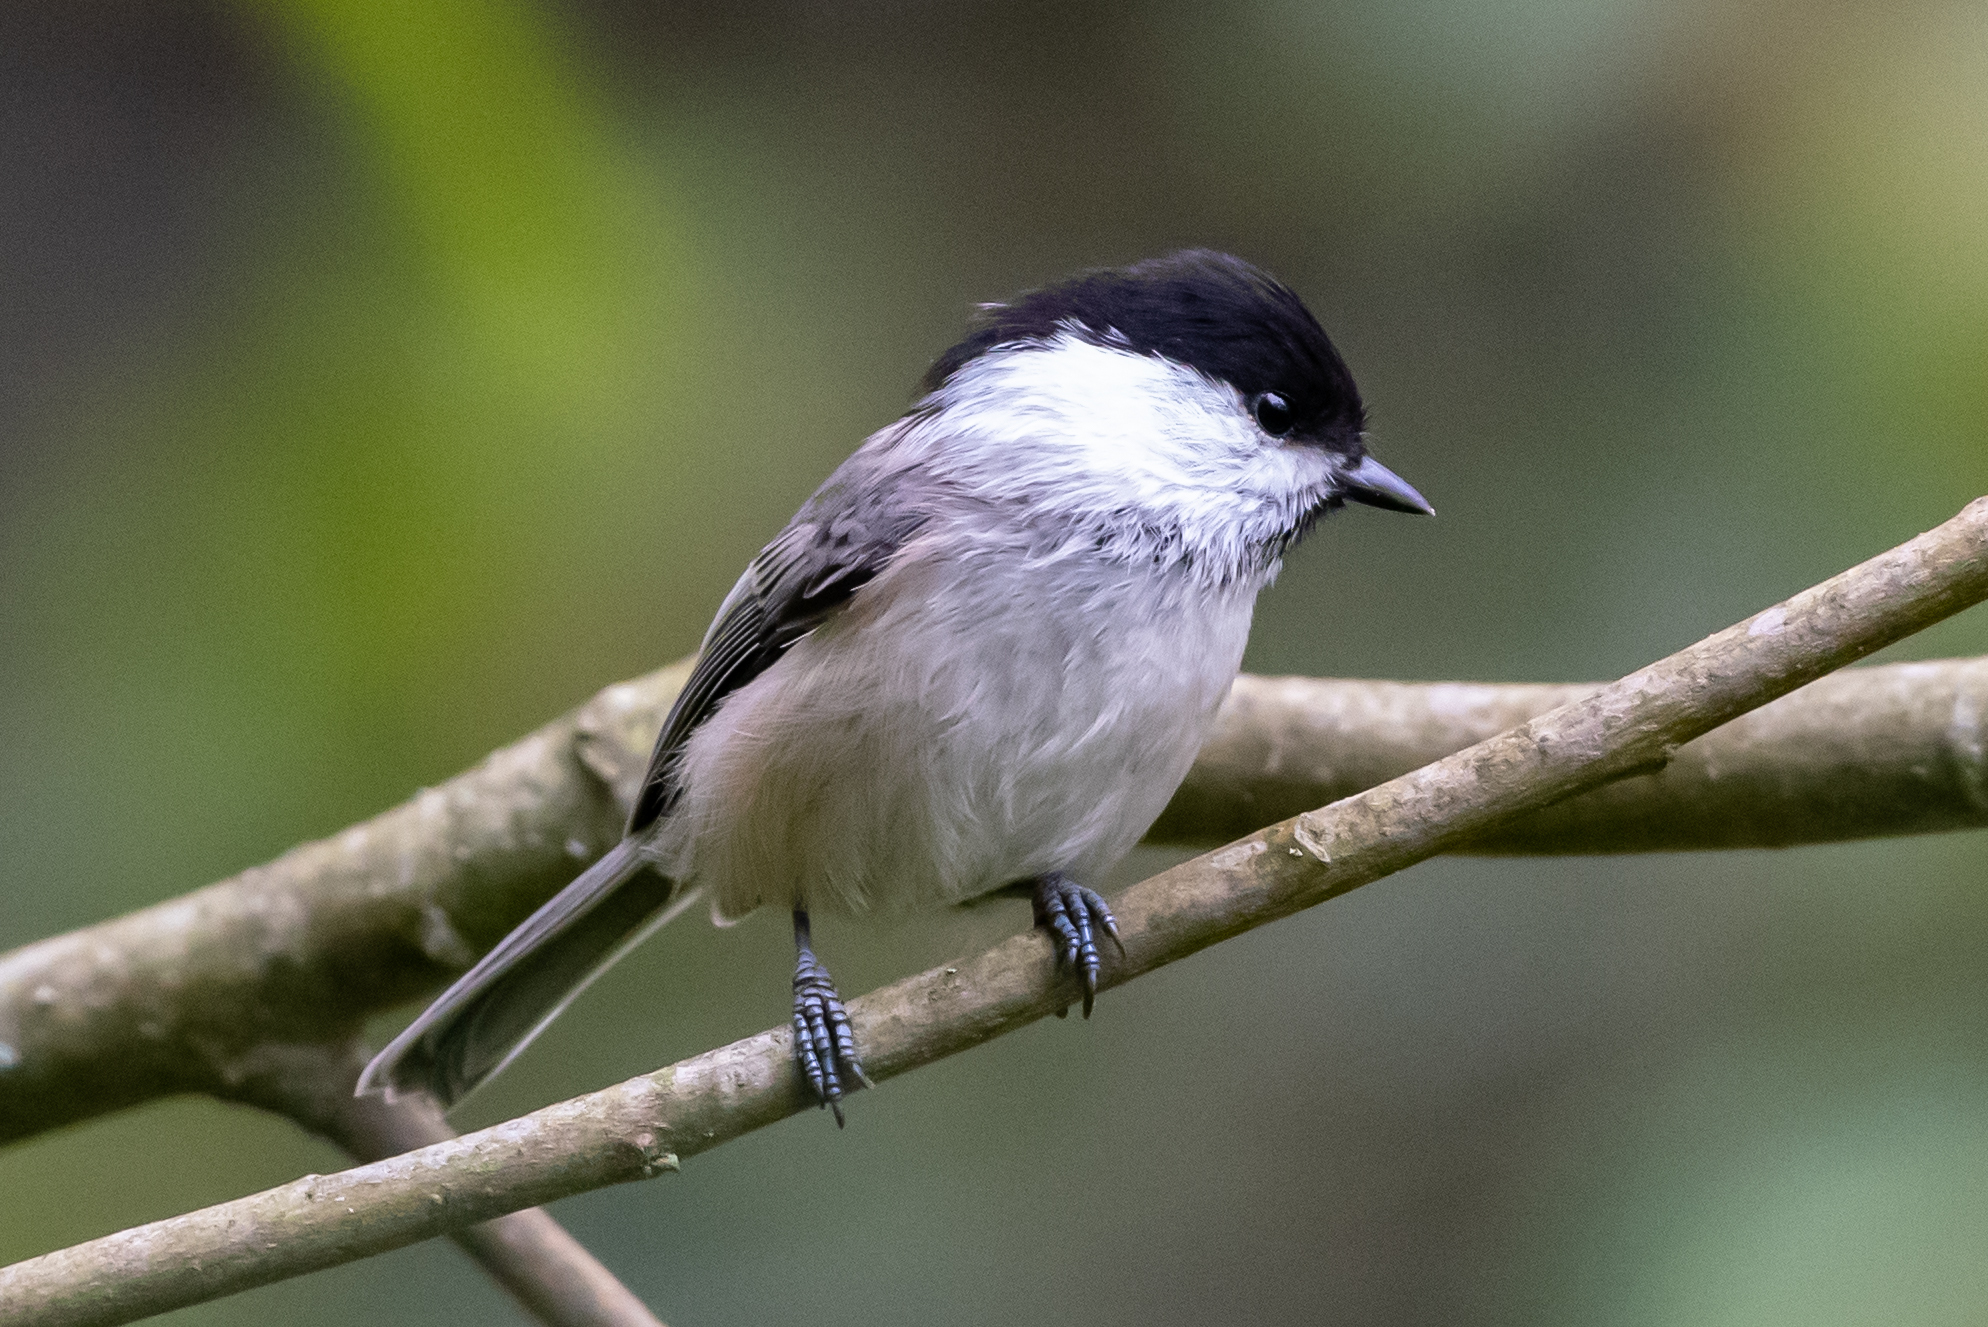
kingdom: Animalia
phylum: Chordata
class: Aves
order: Passeriformes
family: Paridae
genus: Poecile
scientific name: Poecile montanus
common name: Willow tit
